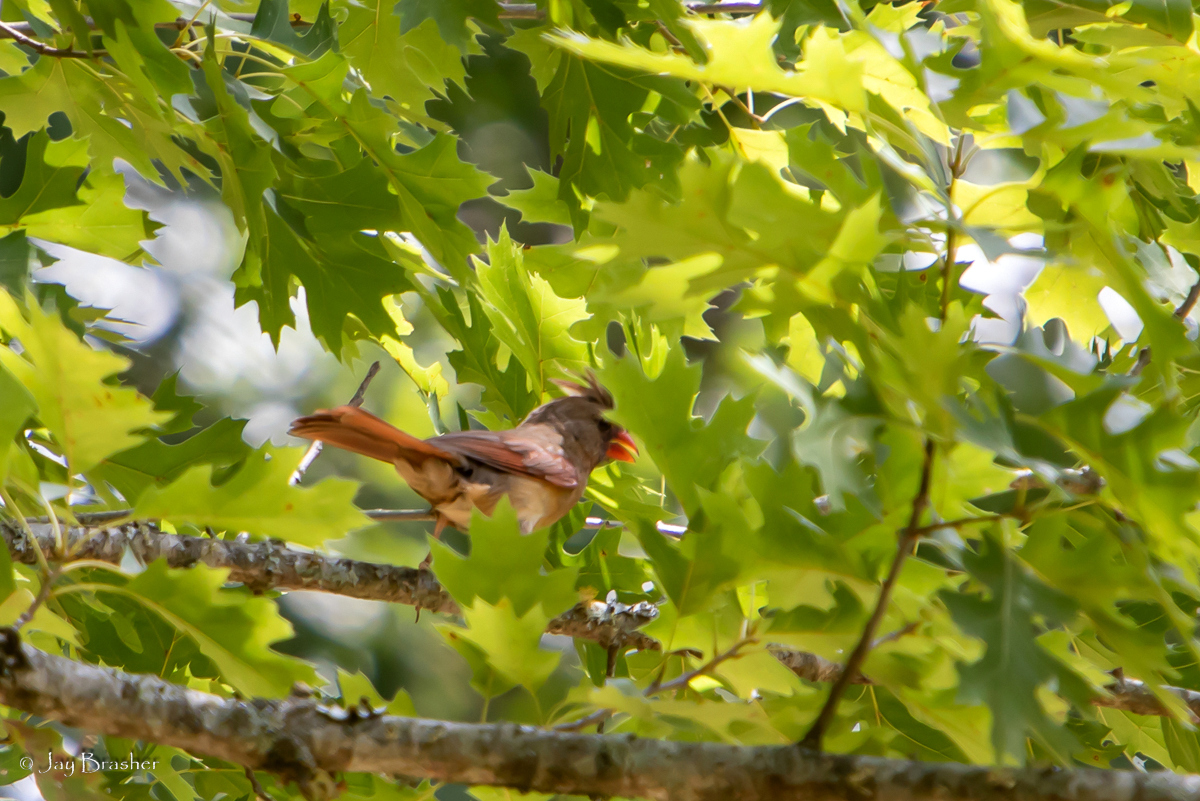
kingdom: Animalia
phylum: Chordata
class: Aves
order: Passeriformes
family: Cardinalidae
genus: Cardinalis
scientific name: Cardinalis cardinalis
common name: Northern cardinal
